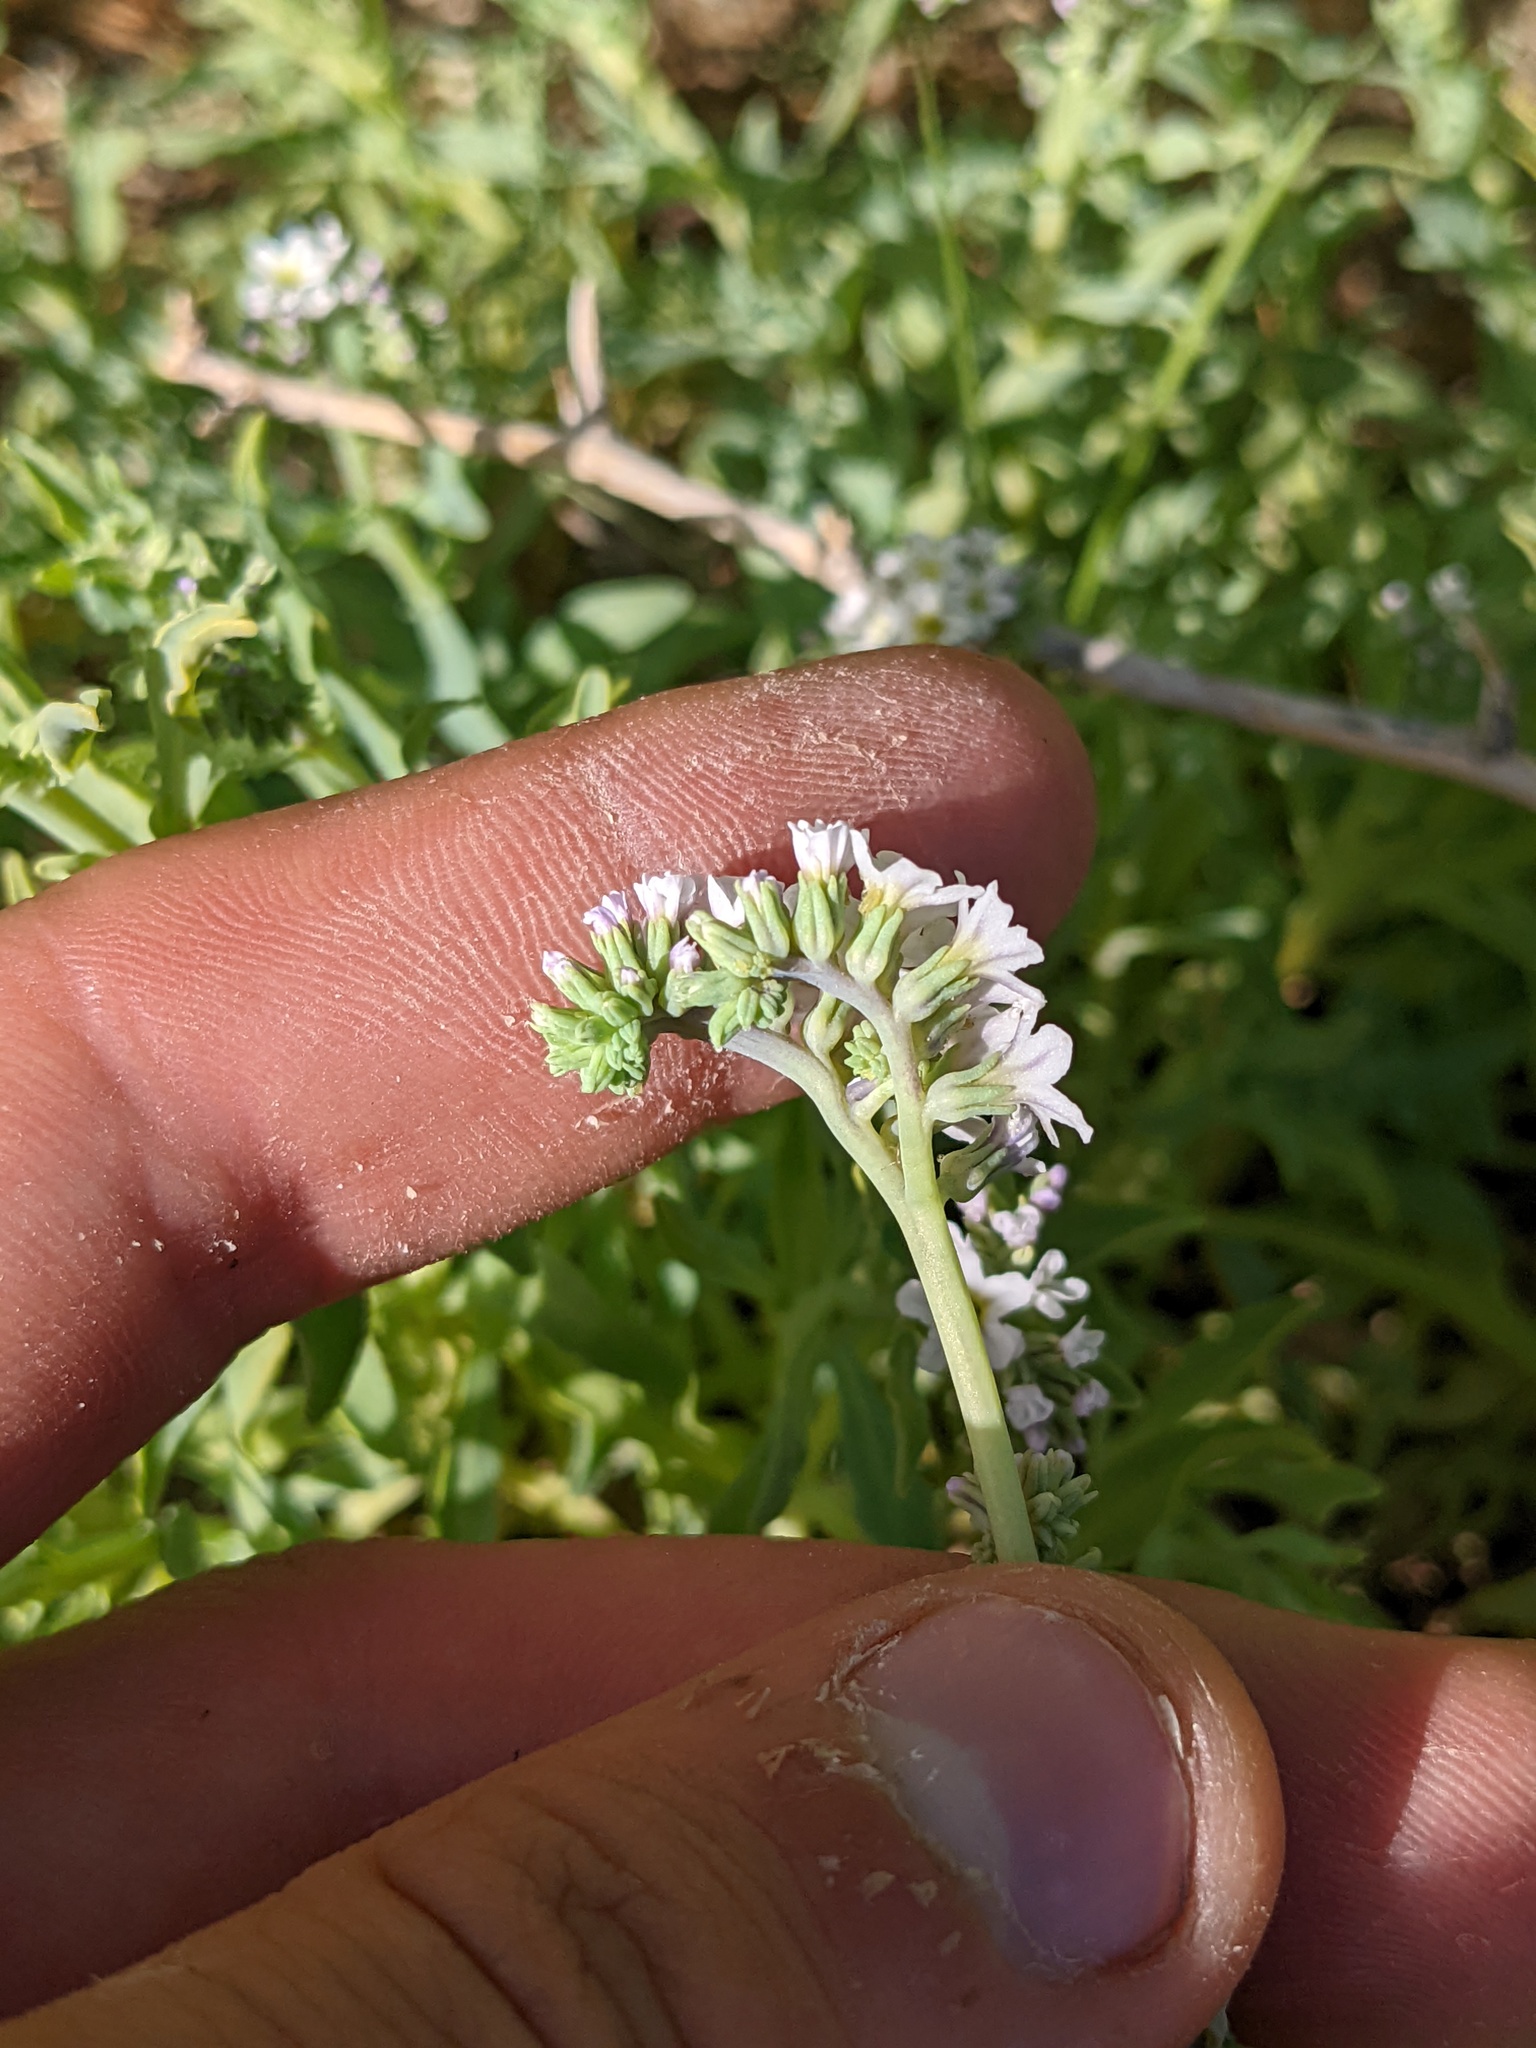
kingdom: Plantae
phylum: Tracheophyta
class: Magnoliopsida
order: Boraginales
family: Heliotropiaceae
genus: Heliotropium
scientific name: Heliotropium curassavicum
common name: Seaside heliotrope
